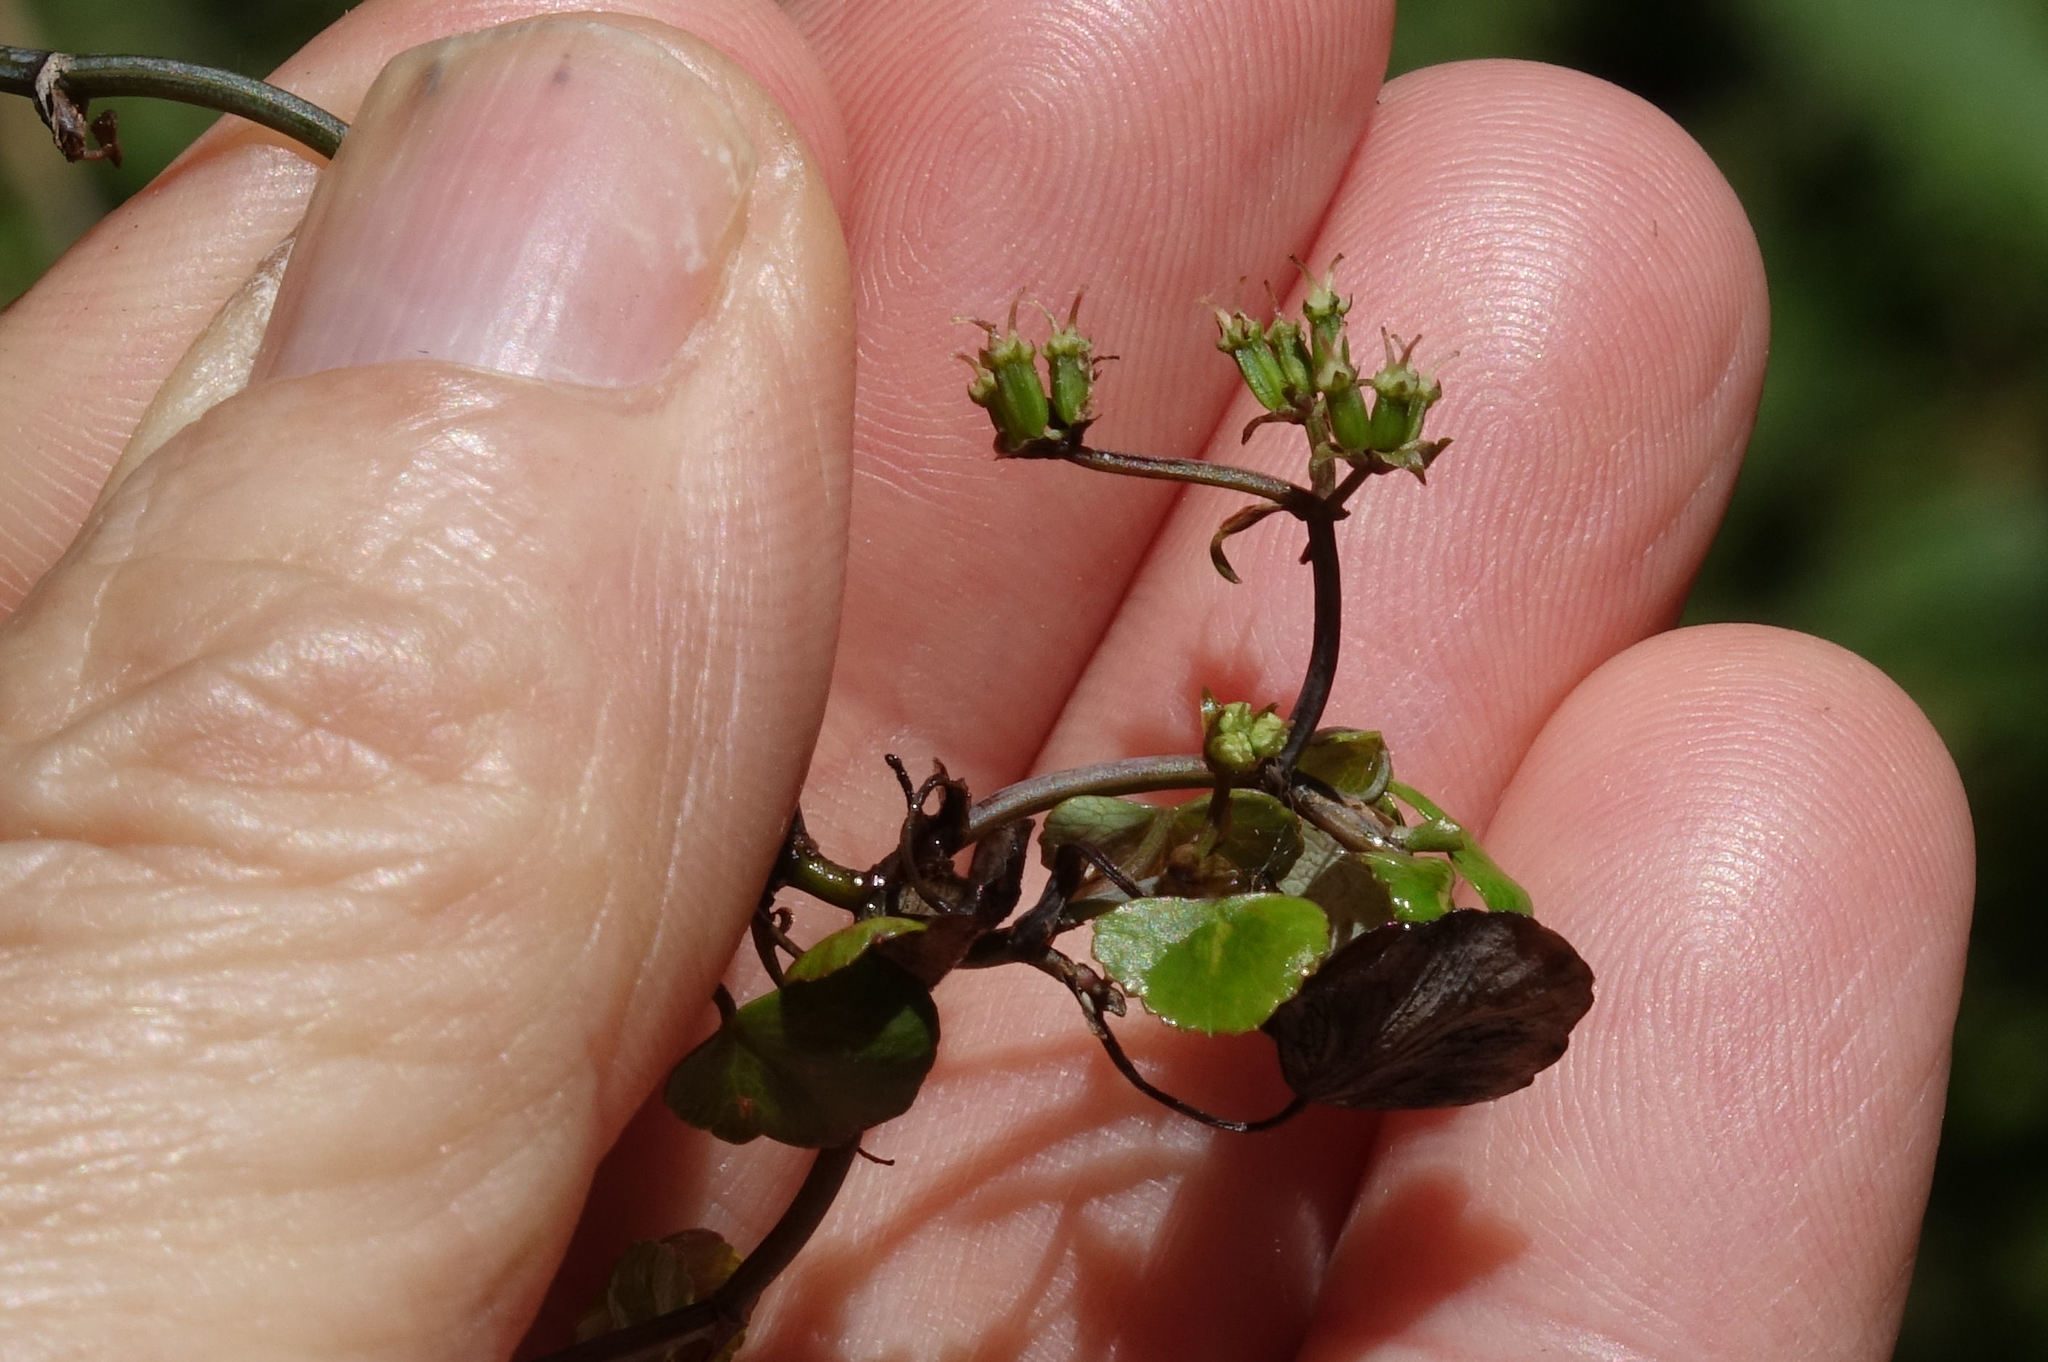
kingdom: Plantae
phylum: Tracheophyta
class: Magnoliopsida
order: Apiales
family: Apiaceae
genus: Scandia
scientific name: Scandia geniculata
